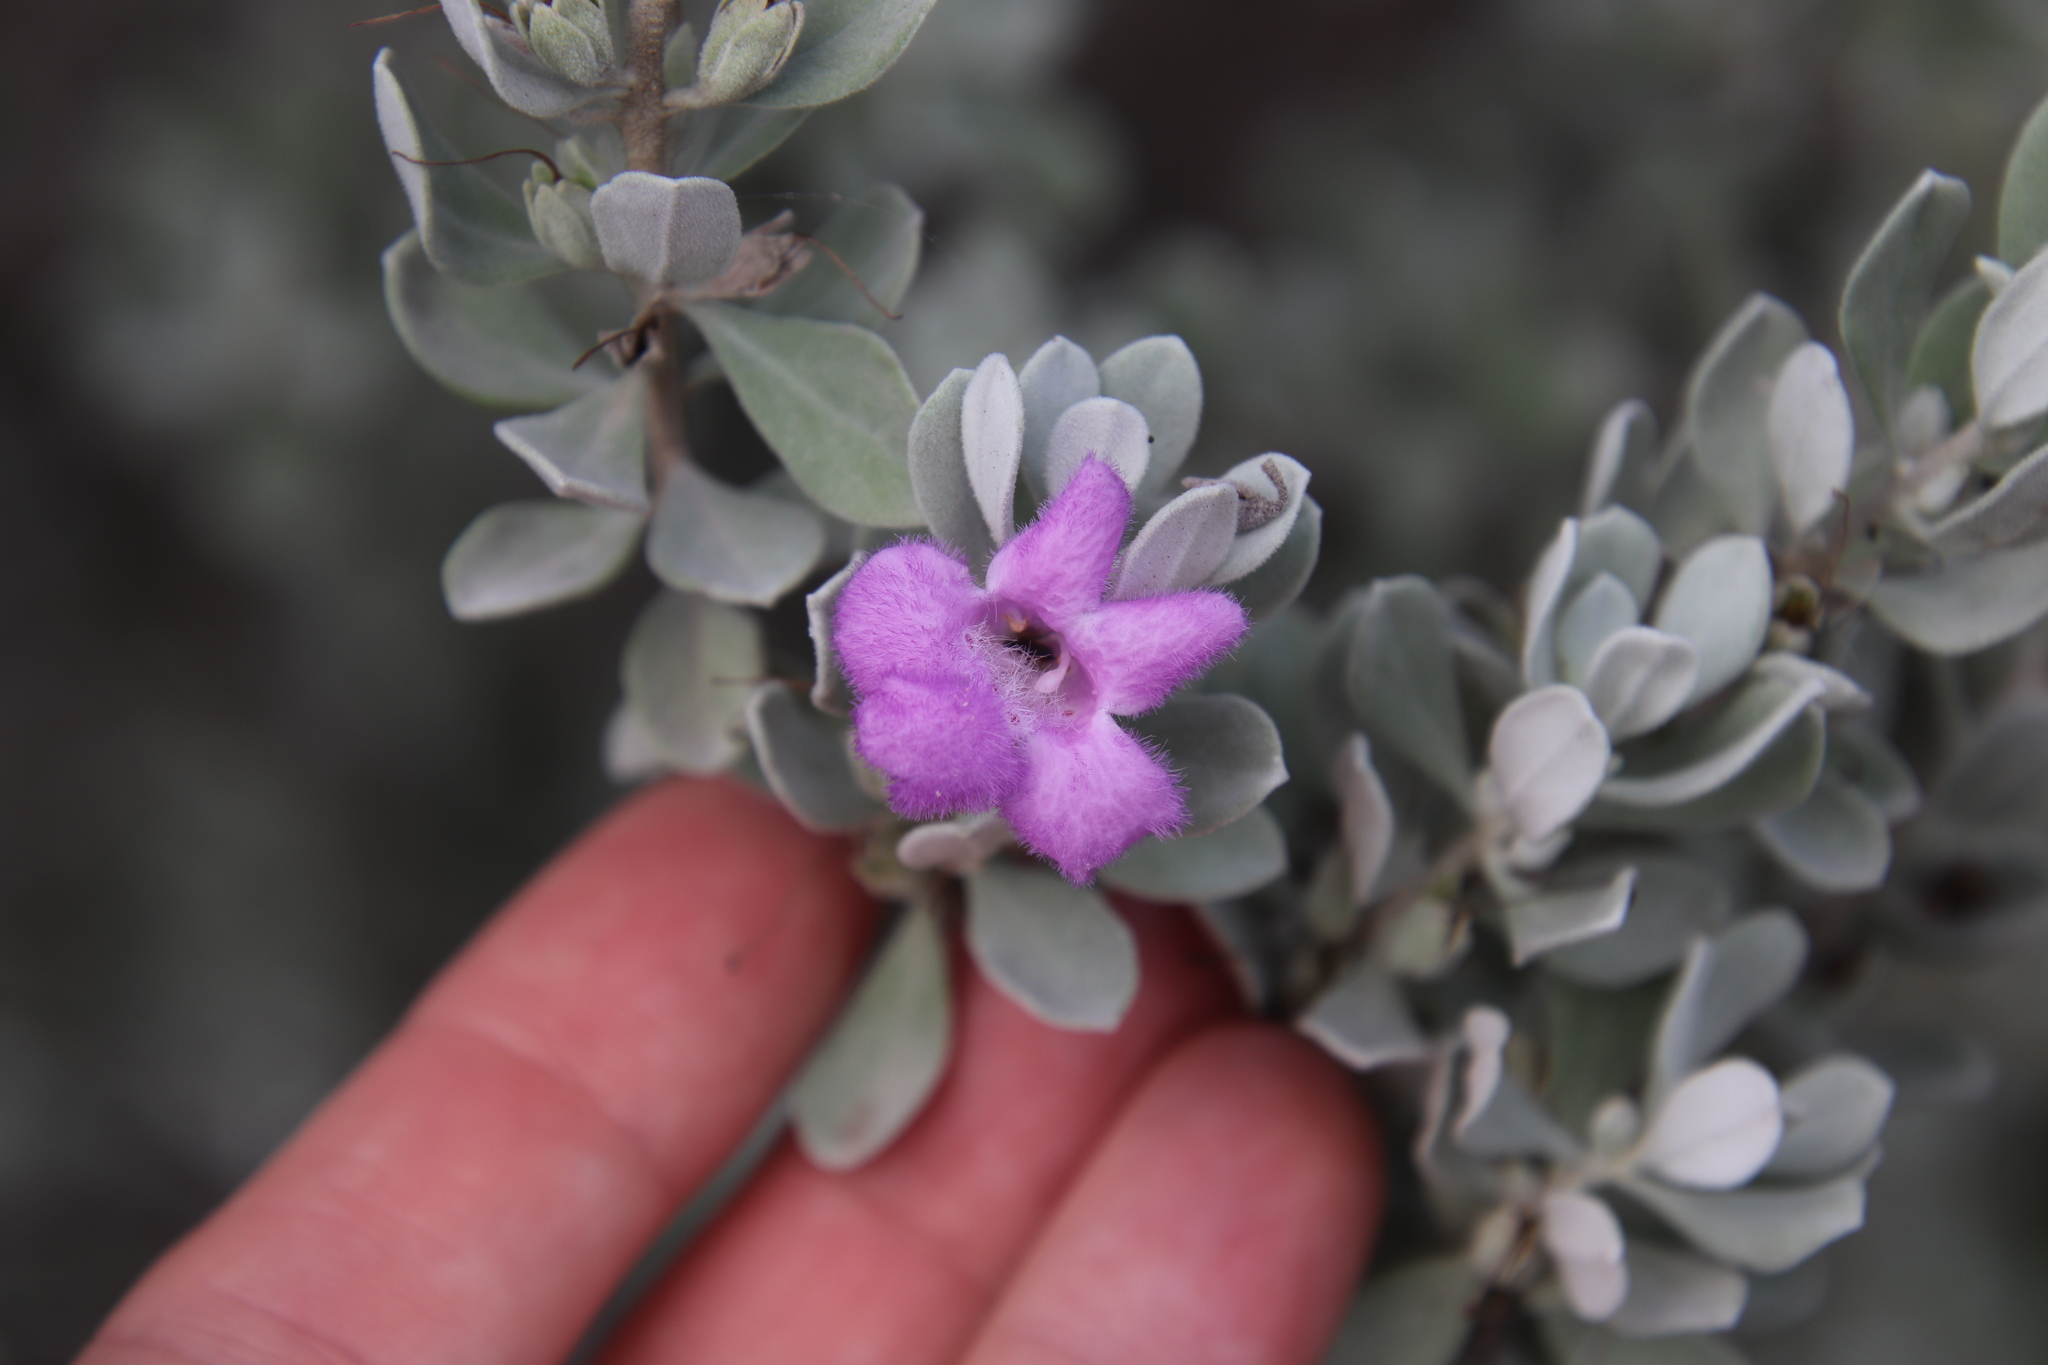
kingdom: Plantae
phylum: Tracheophyta
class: Magnoliopsida
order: Lamiales
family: Scrophulariaceae
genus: Leucophyllum
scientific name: Leucophyllum frutescens
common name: Texas silverleaf
